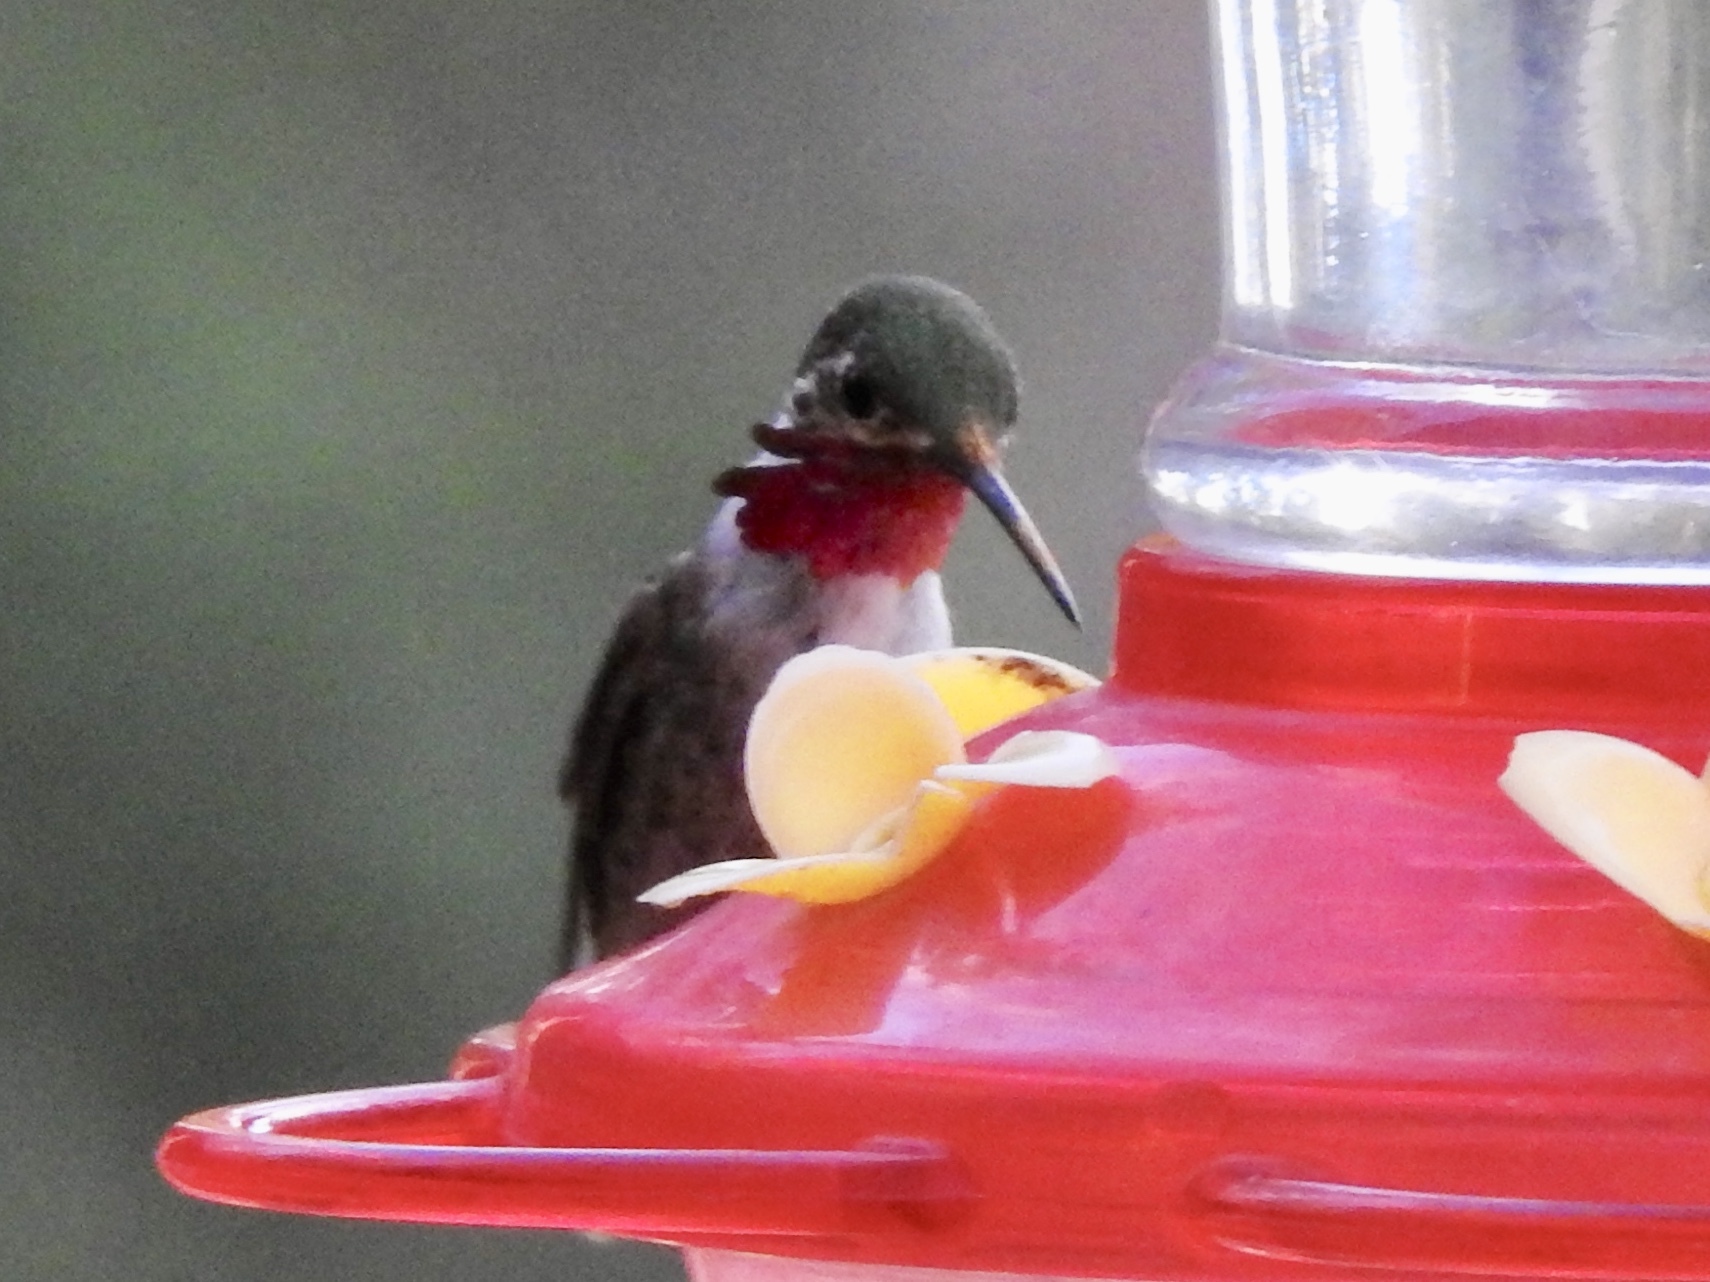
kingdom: Animalia
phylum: Chordata
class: Aves
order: Apodiformes
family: Trochilidae
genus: Selasphorus
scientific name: Selasphorus calliope
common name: Calliope hummingbird
